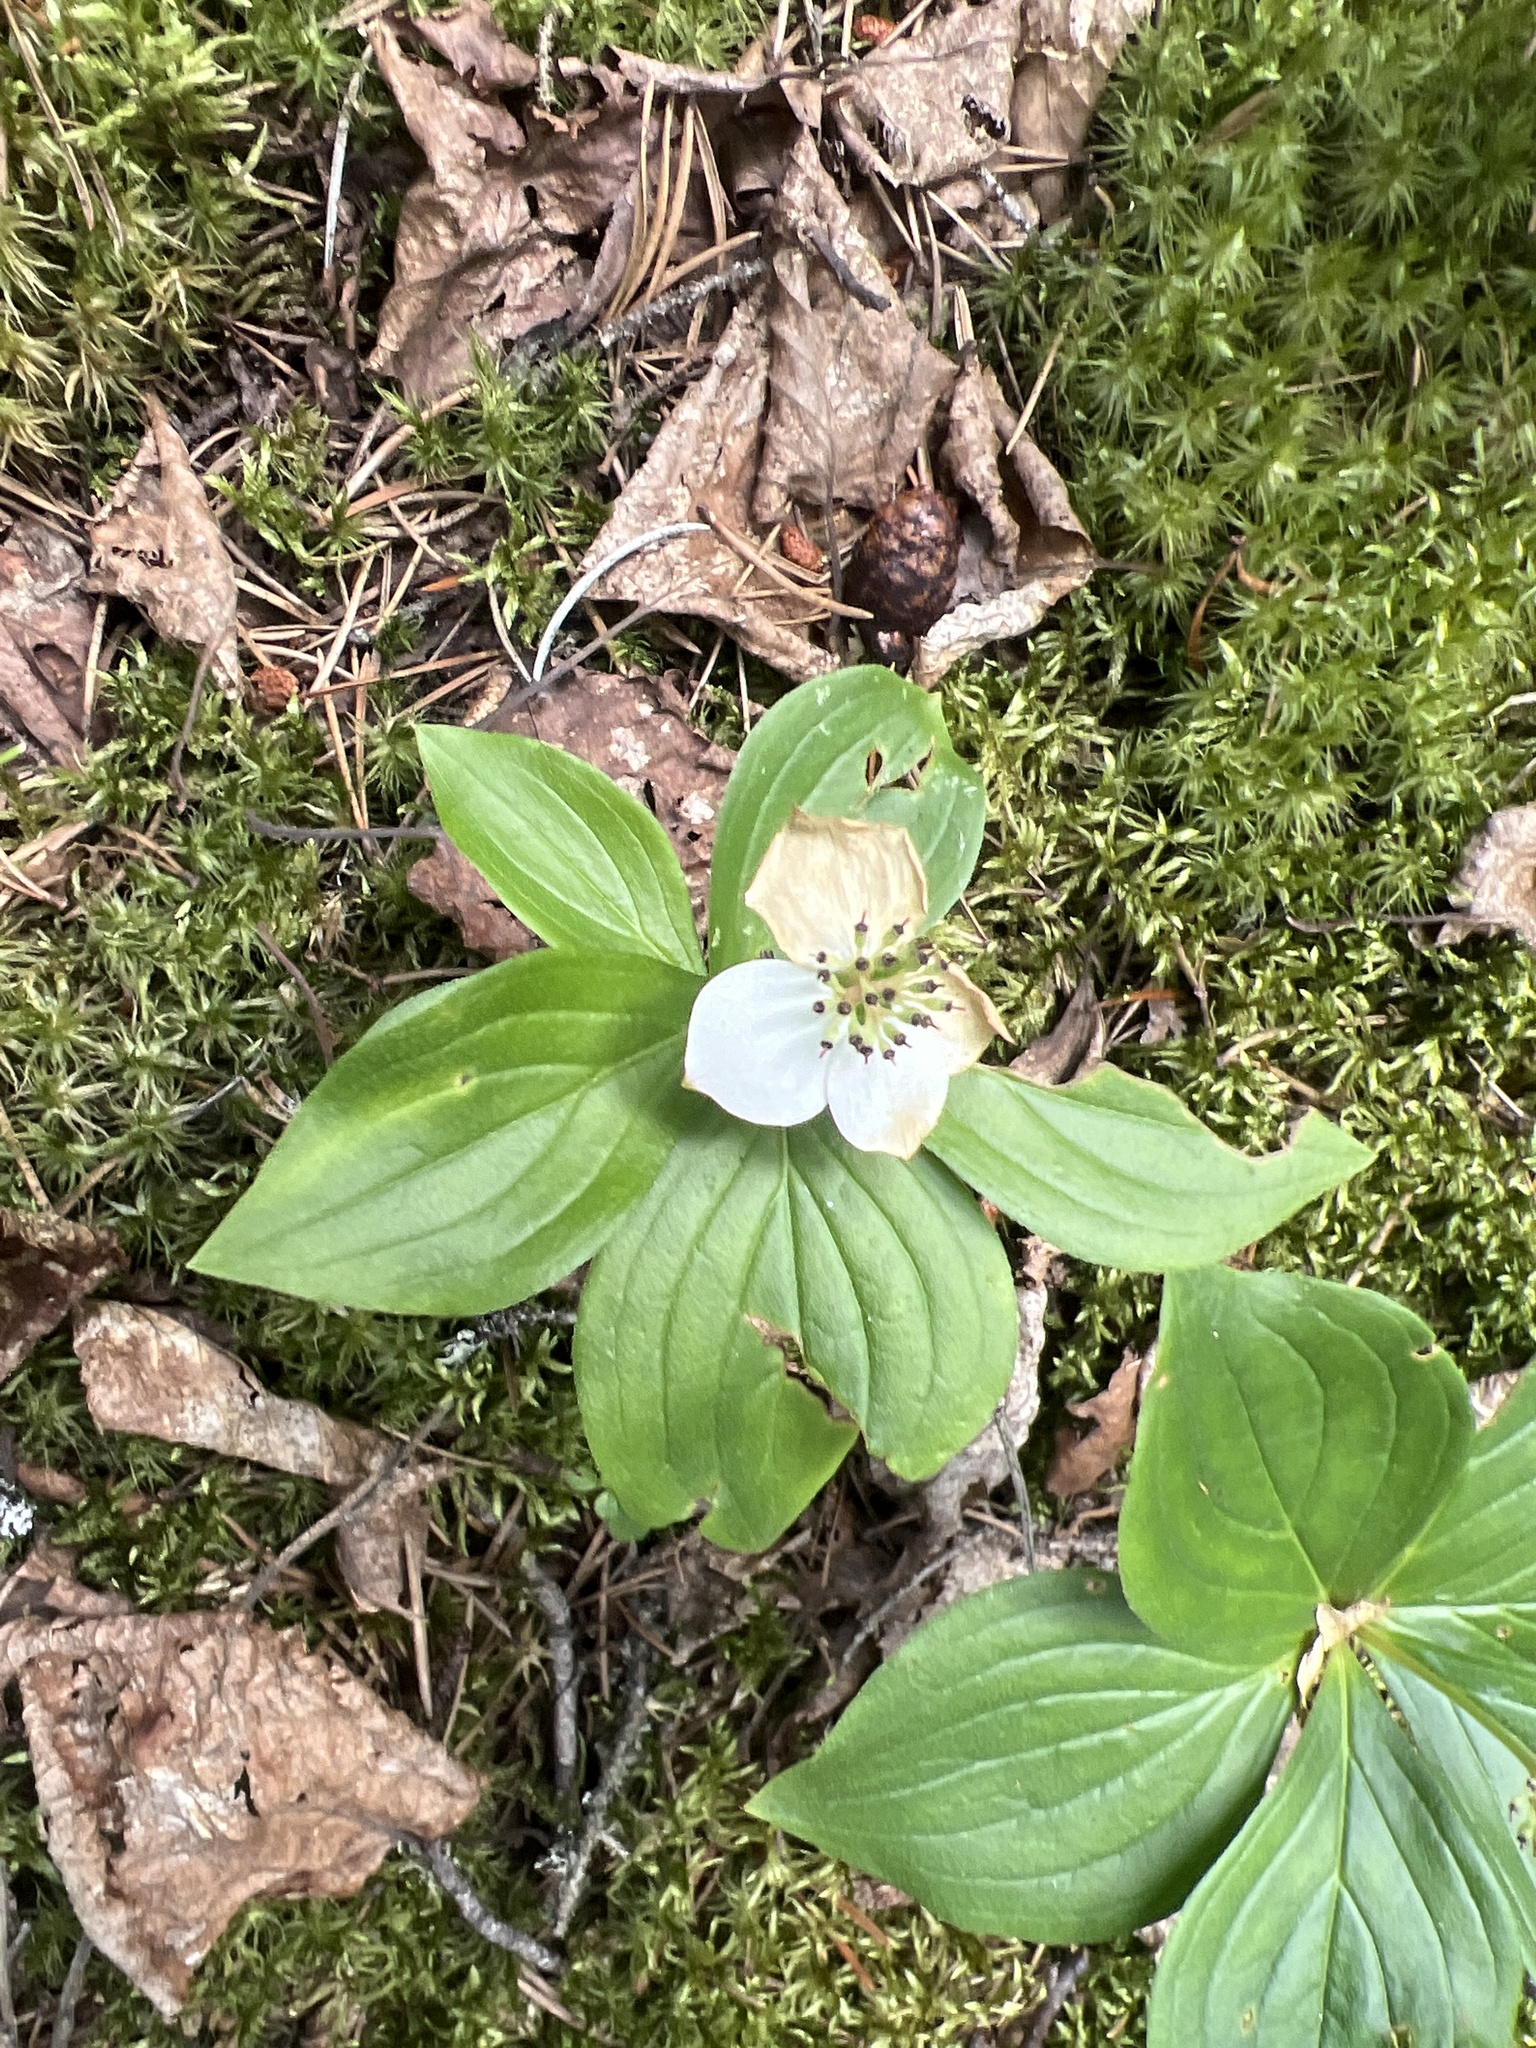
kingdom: Plantae
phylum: Tracheophyta
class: Magnoliopsida
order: Cornales
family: Cornaceae
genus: Cornus
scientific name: Cornus canadensis
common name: Creeping dogwood
